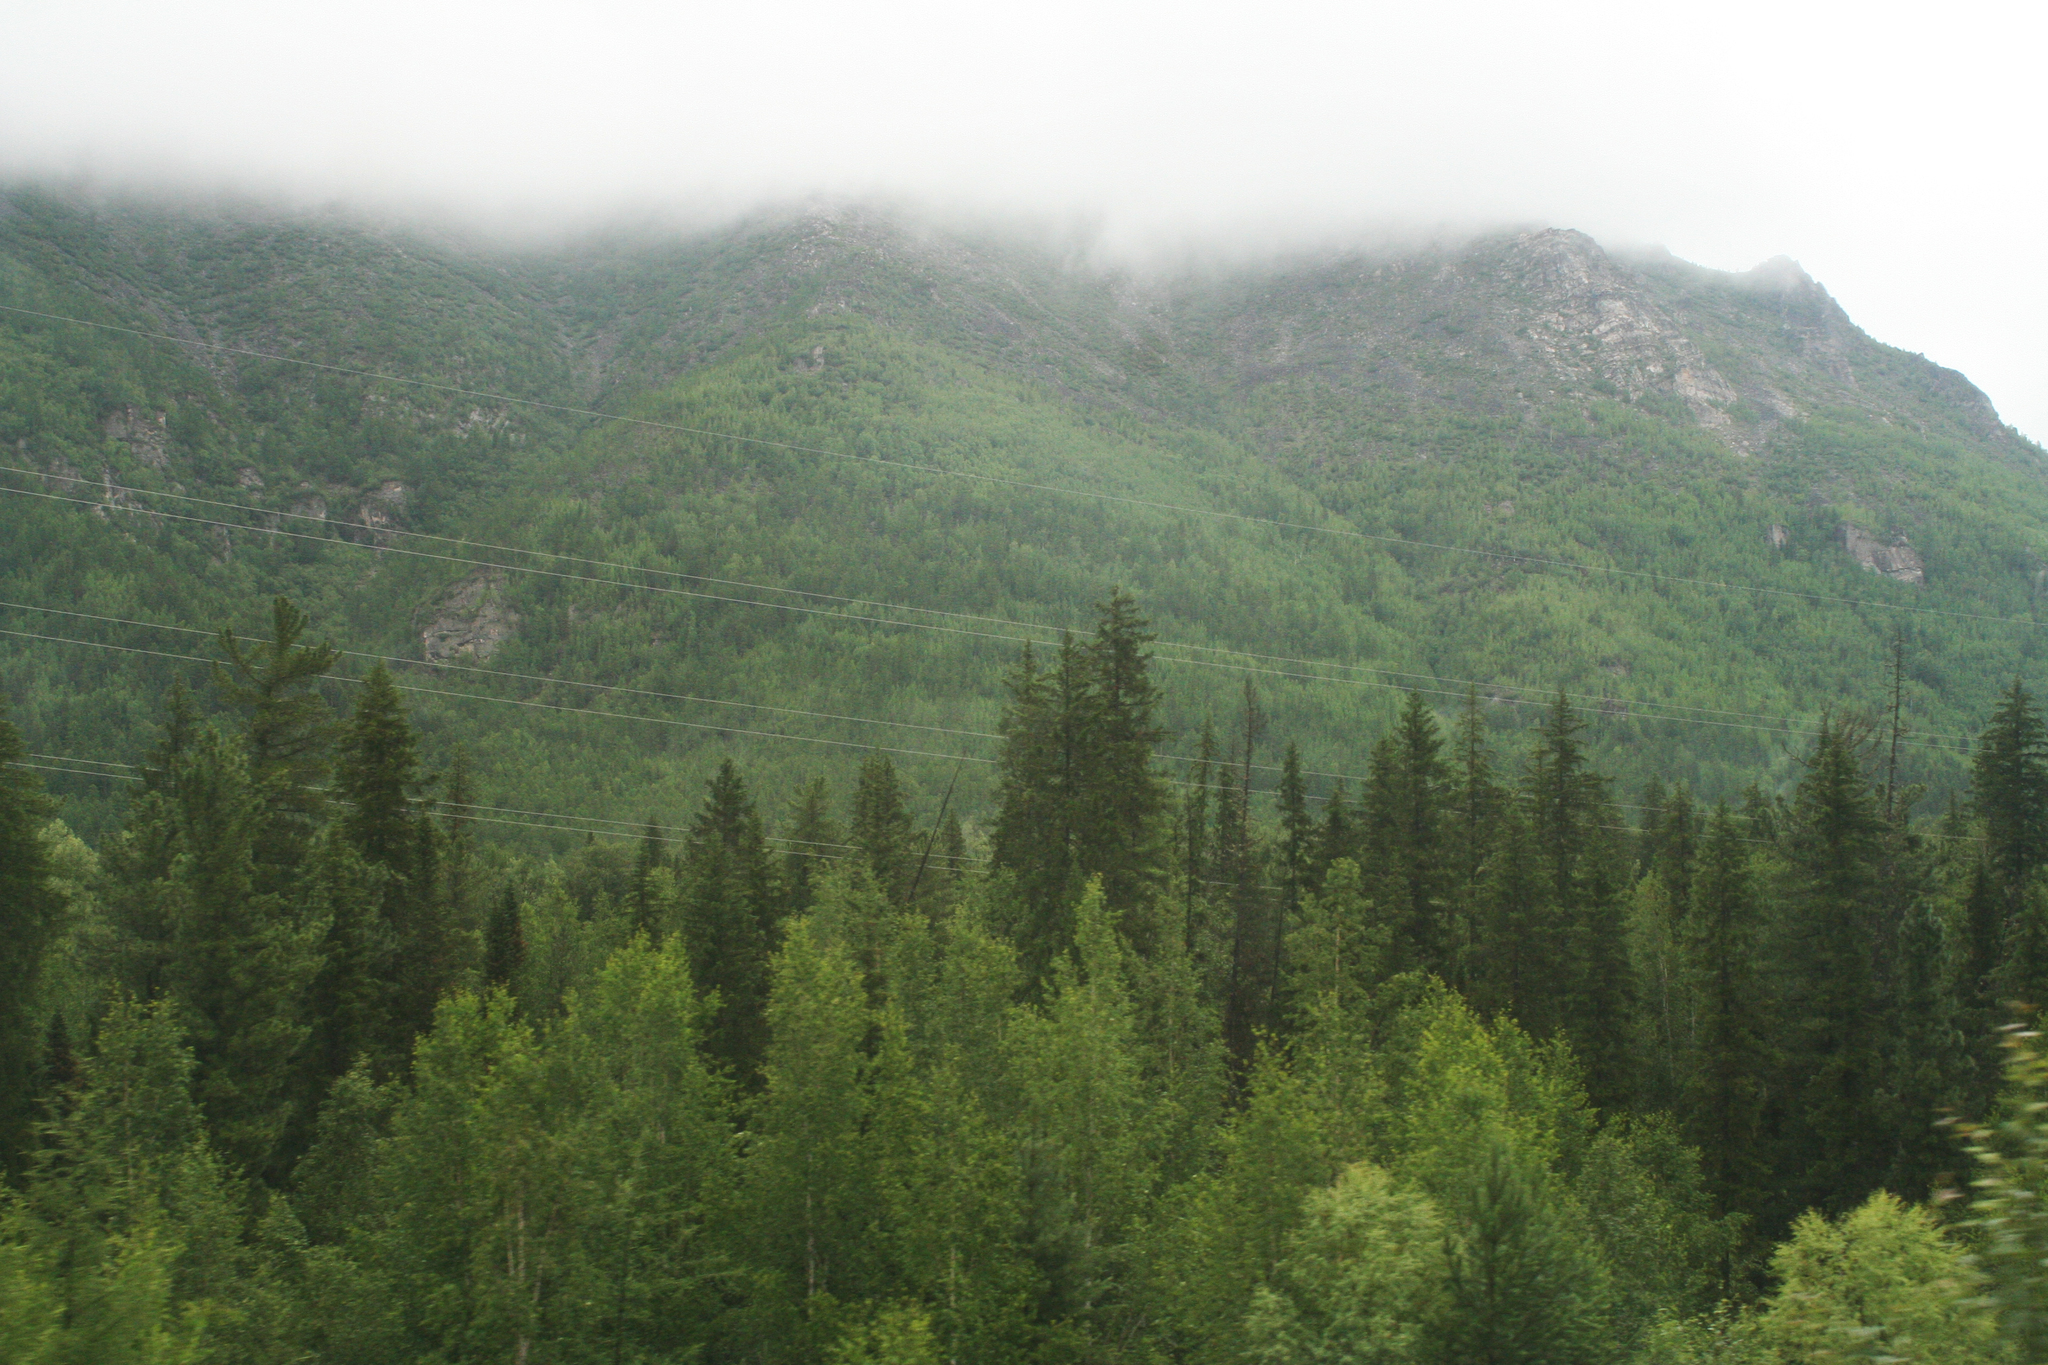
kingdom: Plantae
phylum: Tracheophyta
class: Pinopsida
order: Pinales
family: Pinaceae
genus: Picea
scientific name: Picea obovata
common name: Siberian spruce
